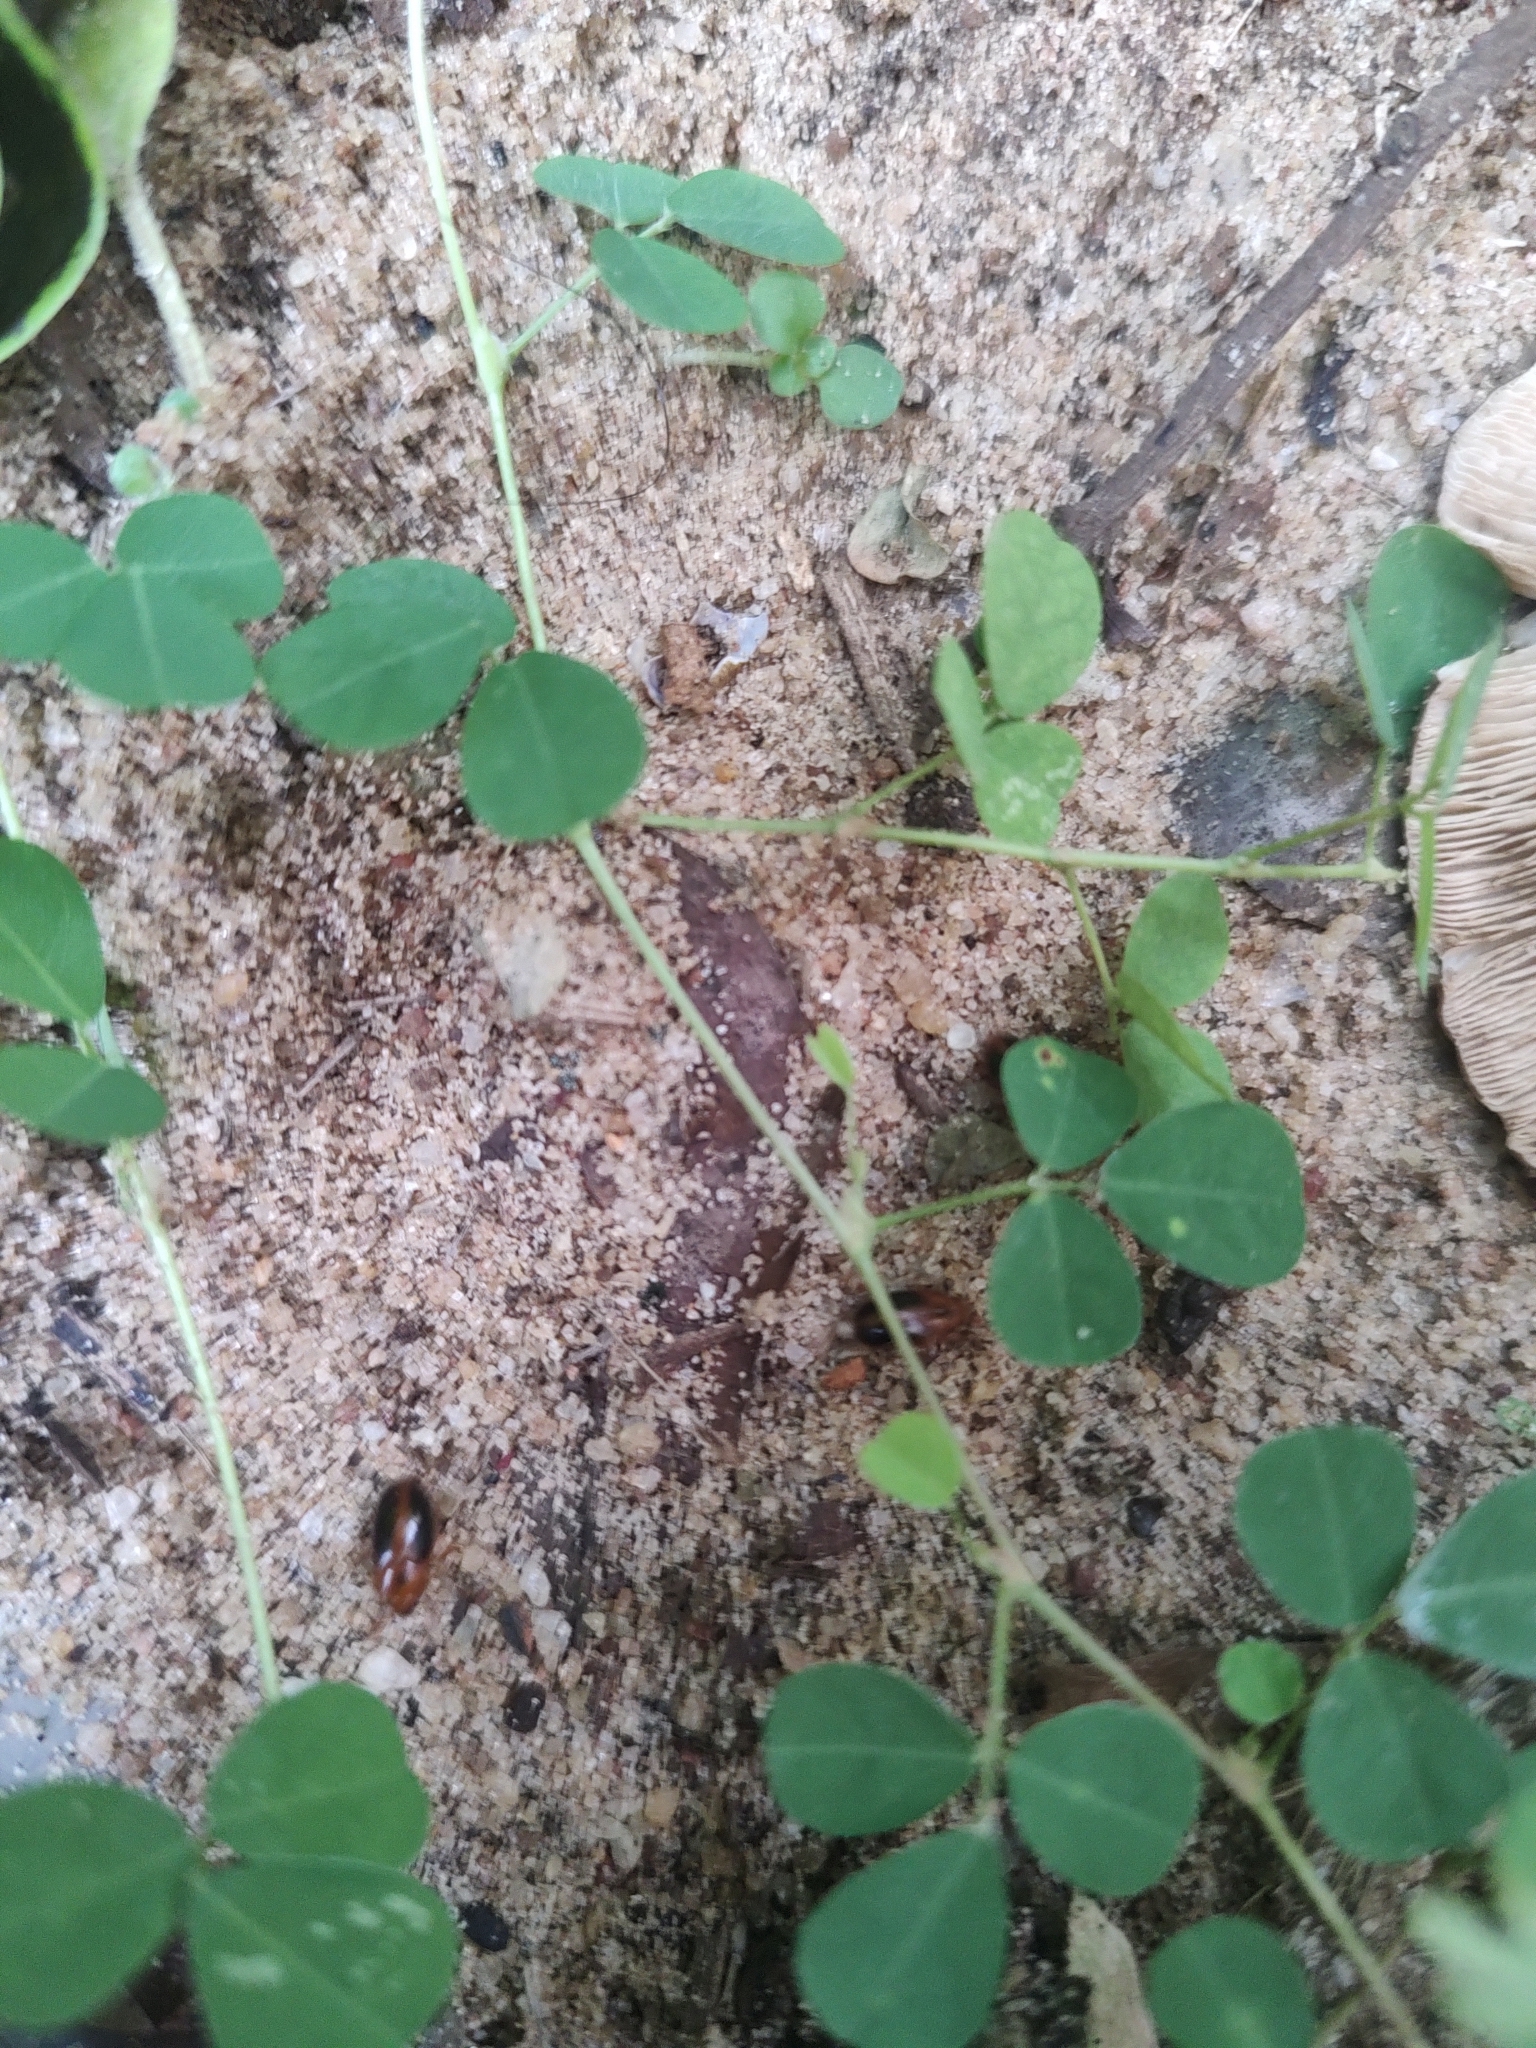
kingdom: Animalia
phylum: Arthropoda
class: Insecta
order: Coleoptera
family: Erotylidae
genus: Amblyopus
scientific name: Amblyopus
